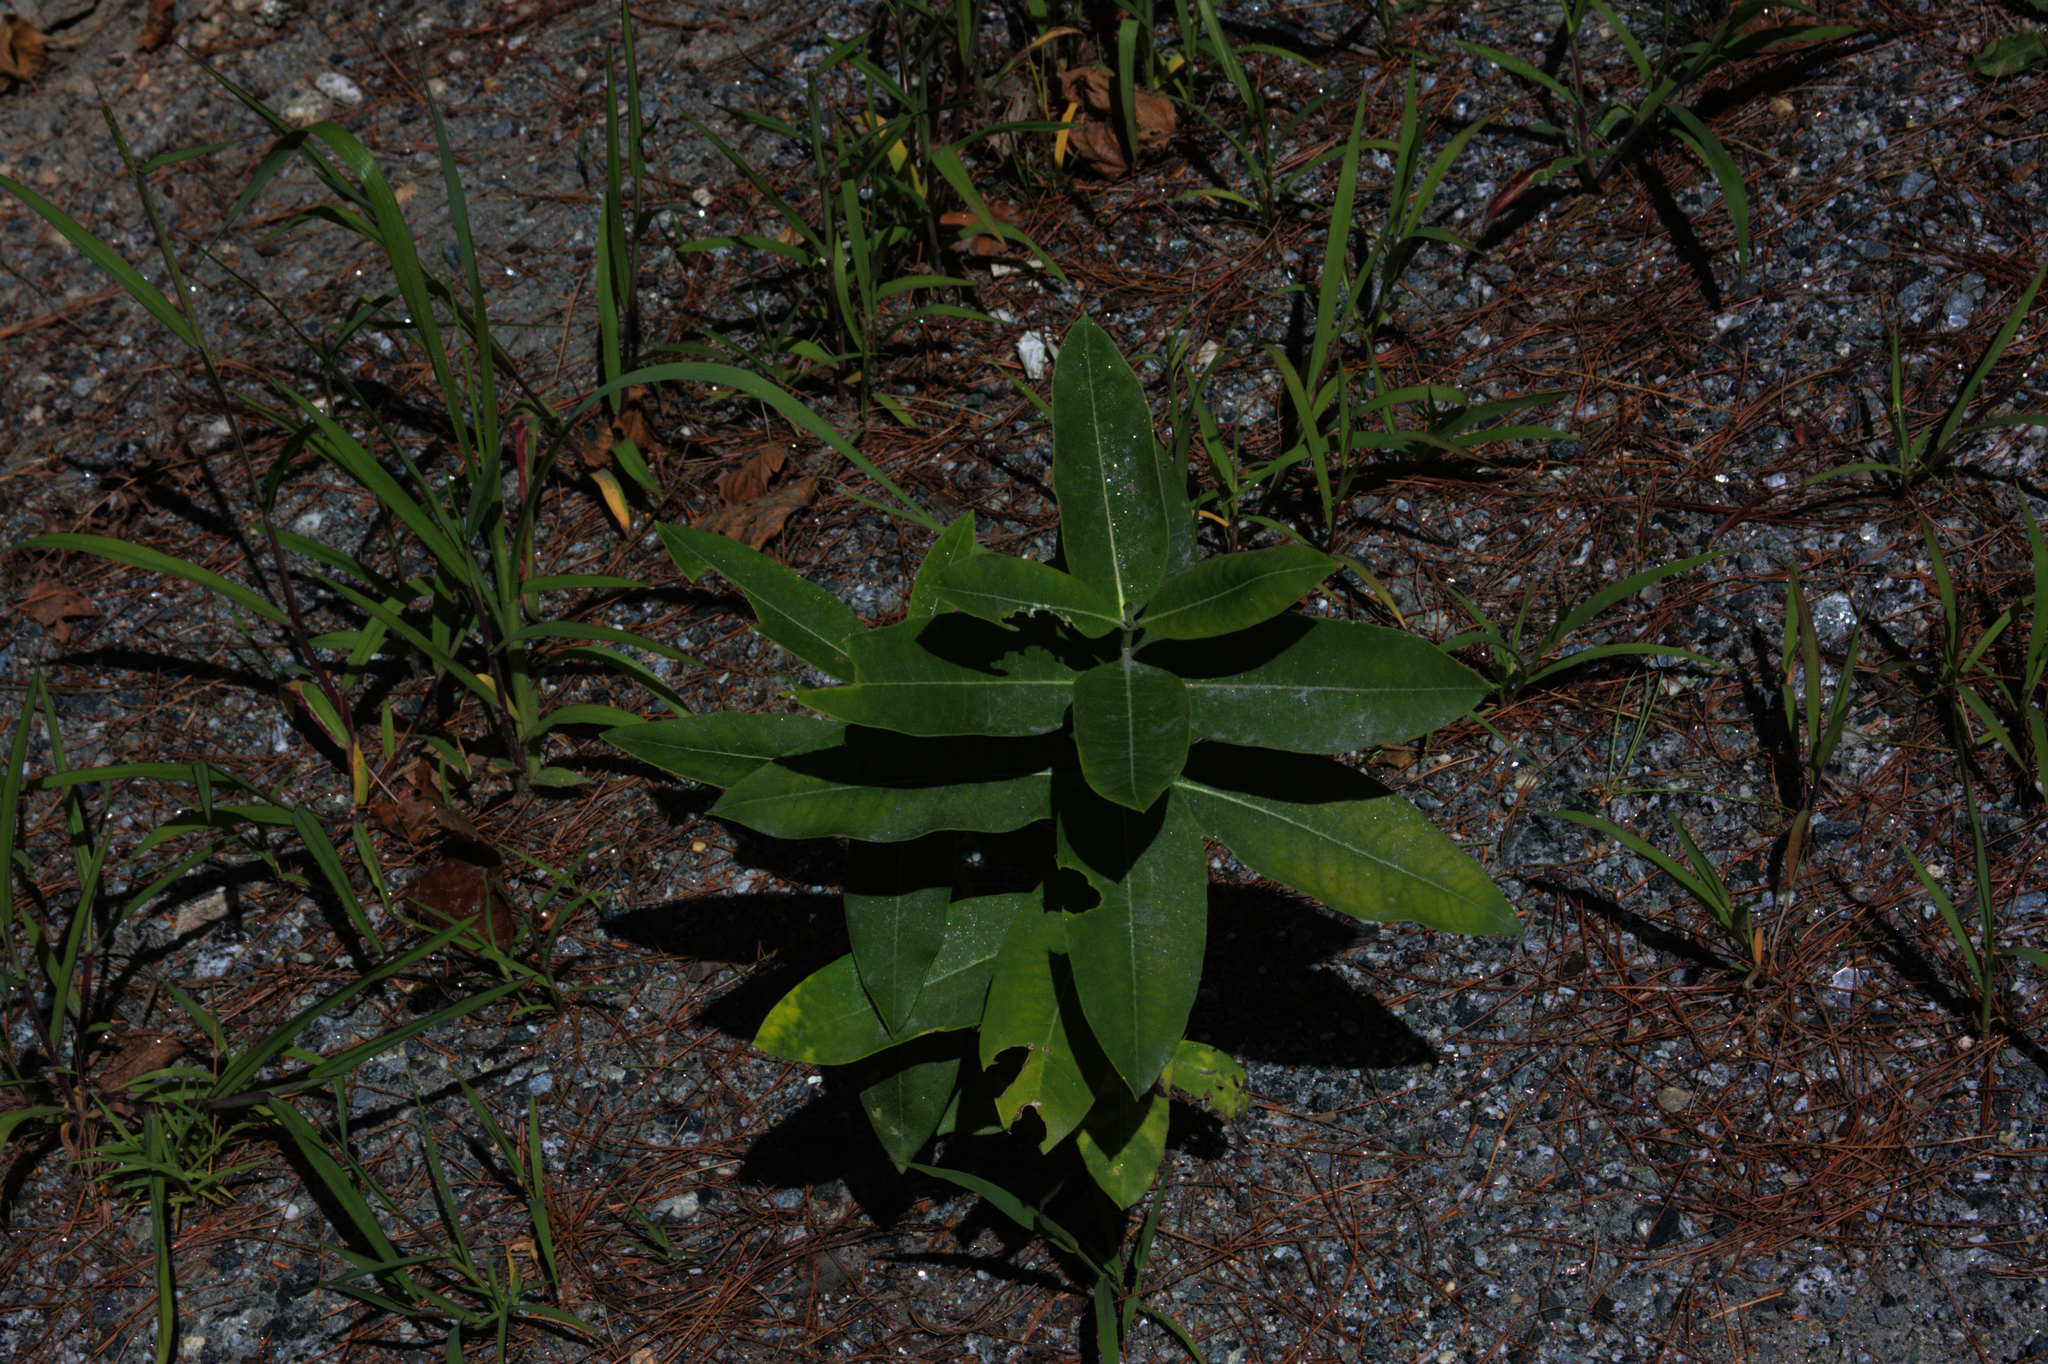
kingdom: Plantae
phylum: Tracheophyta
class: Magnoliopsida
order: Gentianales
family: Apocynaceae
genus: Asclepias
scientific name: Asclepias syriaca
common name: Common milkweed
